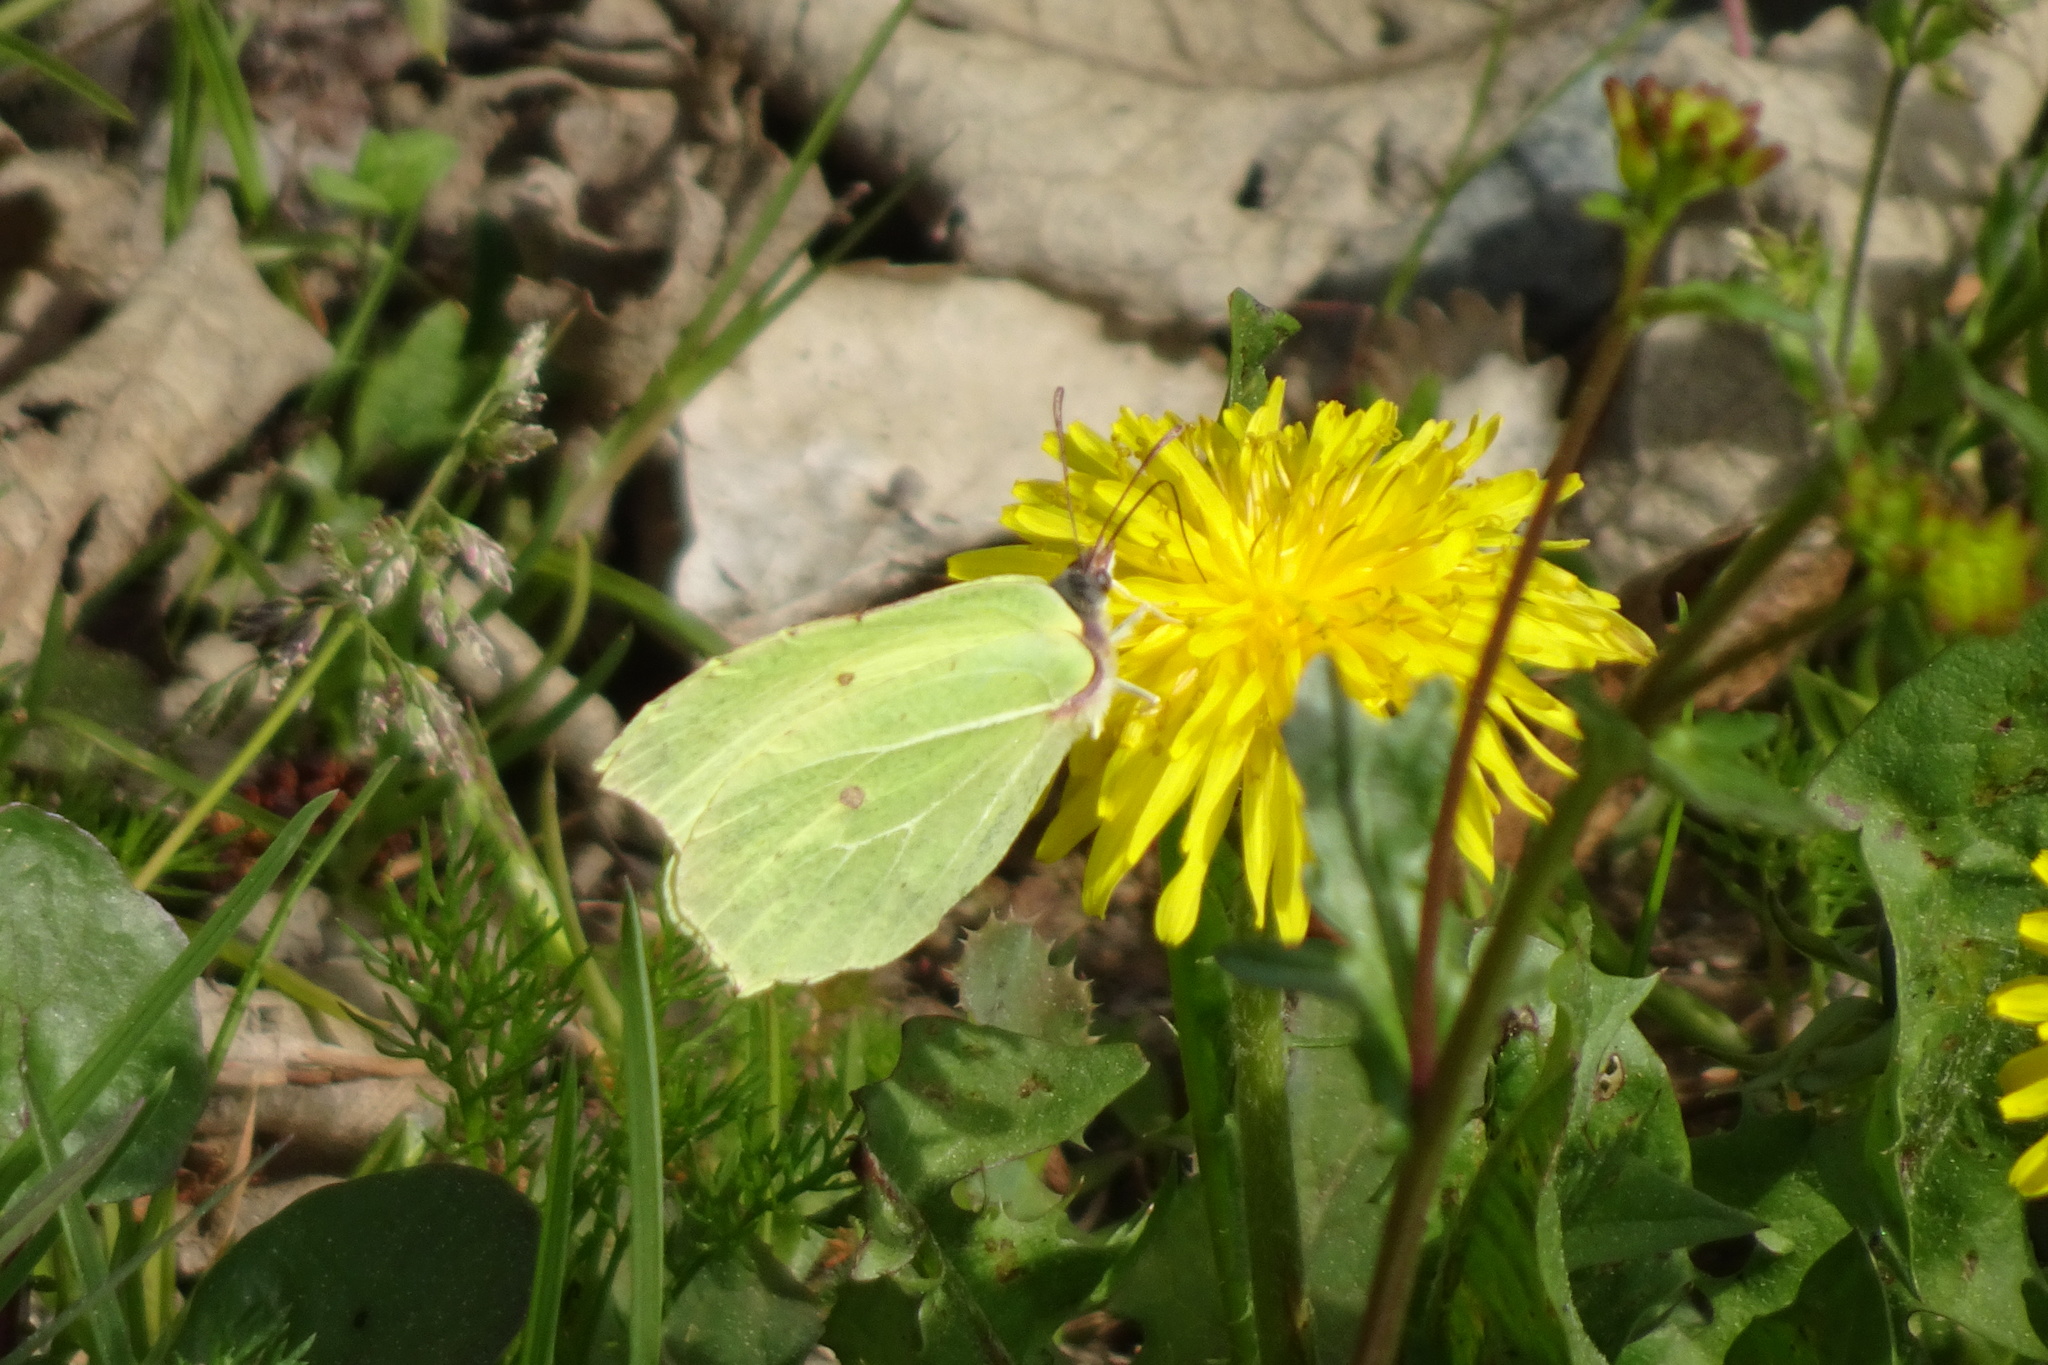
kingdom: Animalia
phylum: Arthropoda
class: Insecta
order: Lepidoptera
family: Pieridae
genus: Gonepteryx
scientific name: Gonepteryx rhamni
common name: Brimstone
